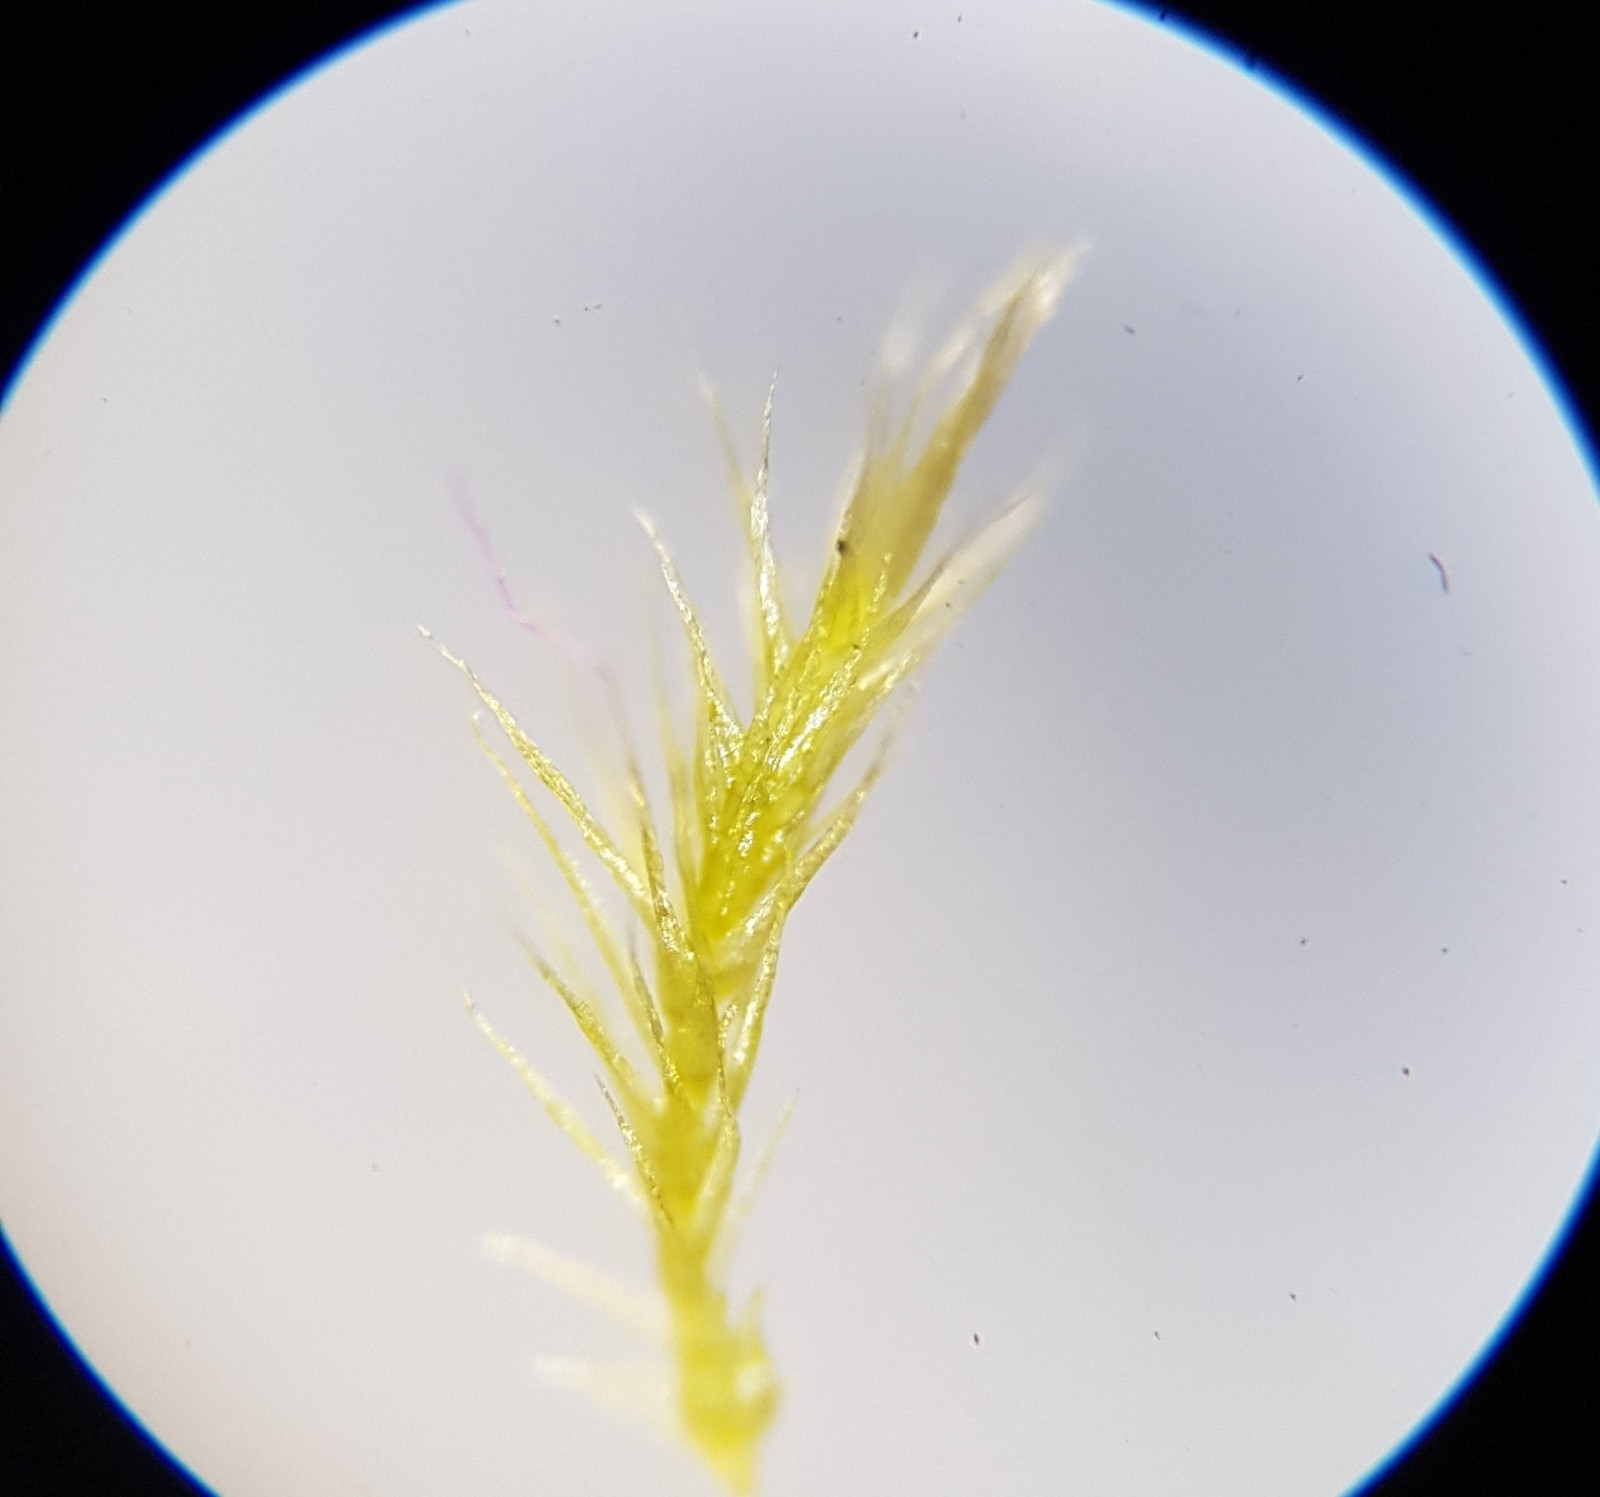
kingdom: Plantae
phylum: Bryophyta
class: Bryopsida
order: Hypnales
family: Brachytheciaceae
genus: Rhynchostegiella
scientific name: Rhynchostegiella tenella
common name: Tender feather-moss
